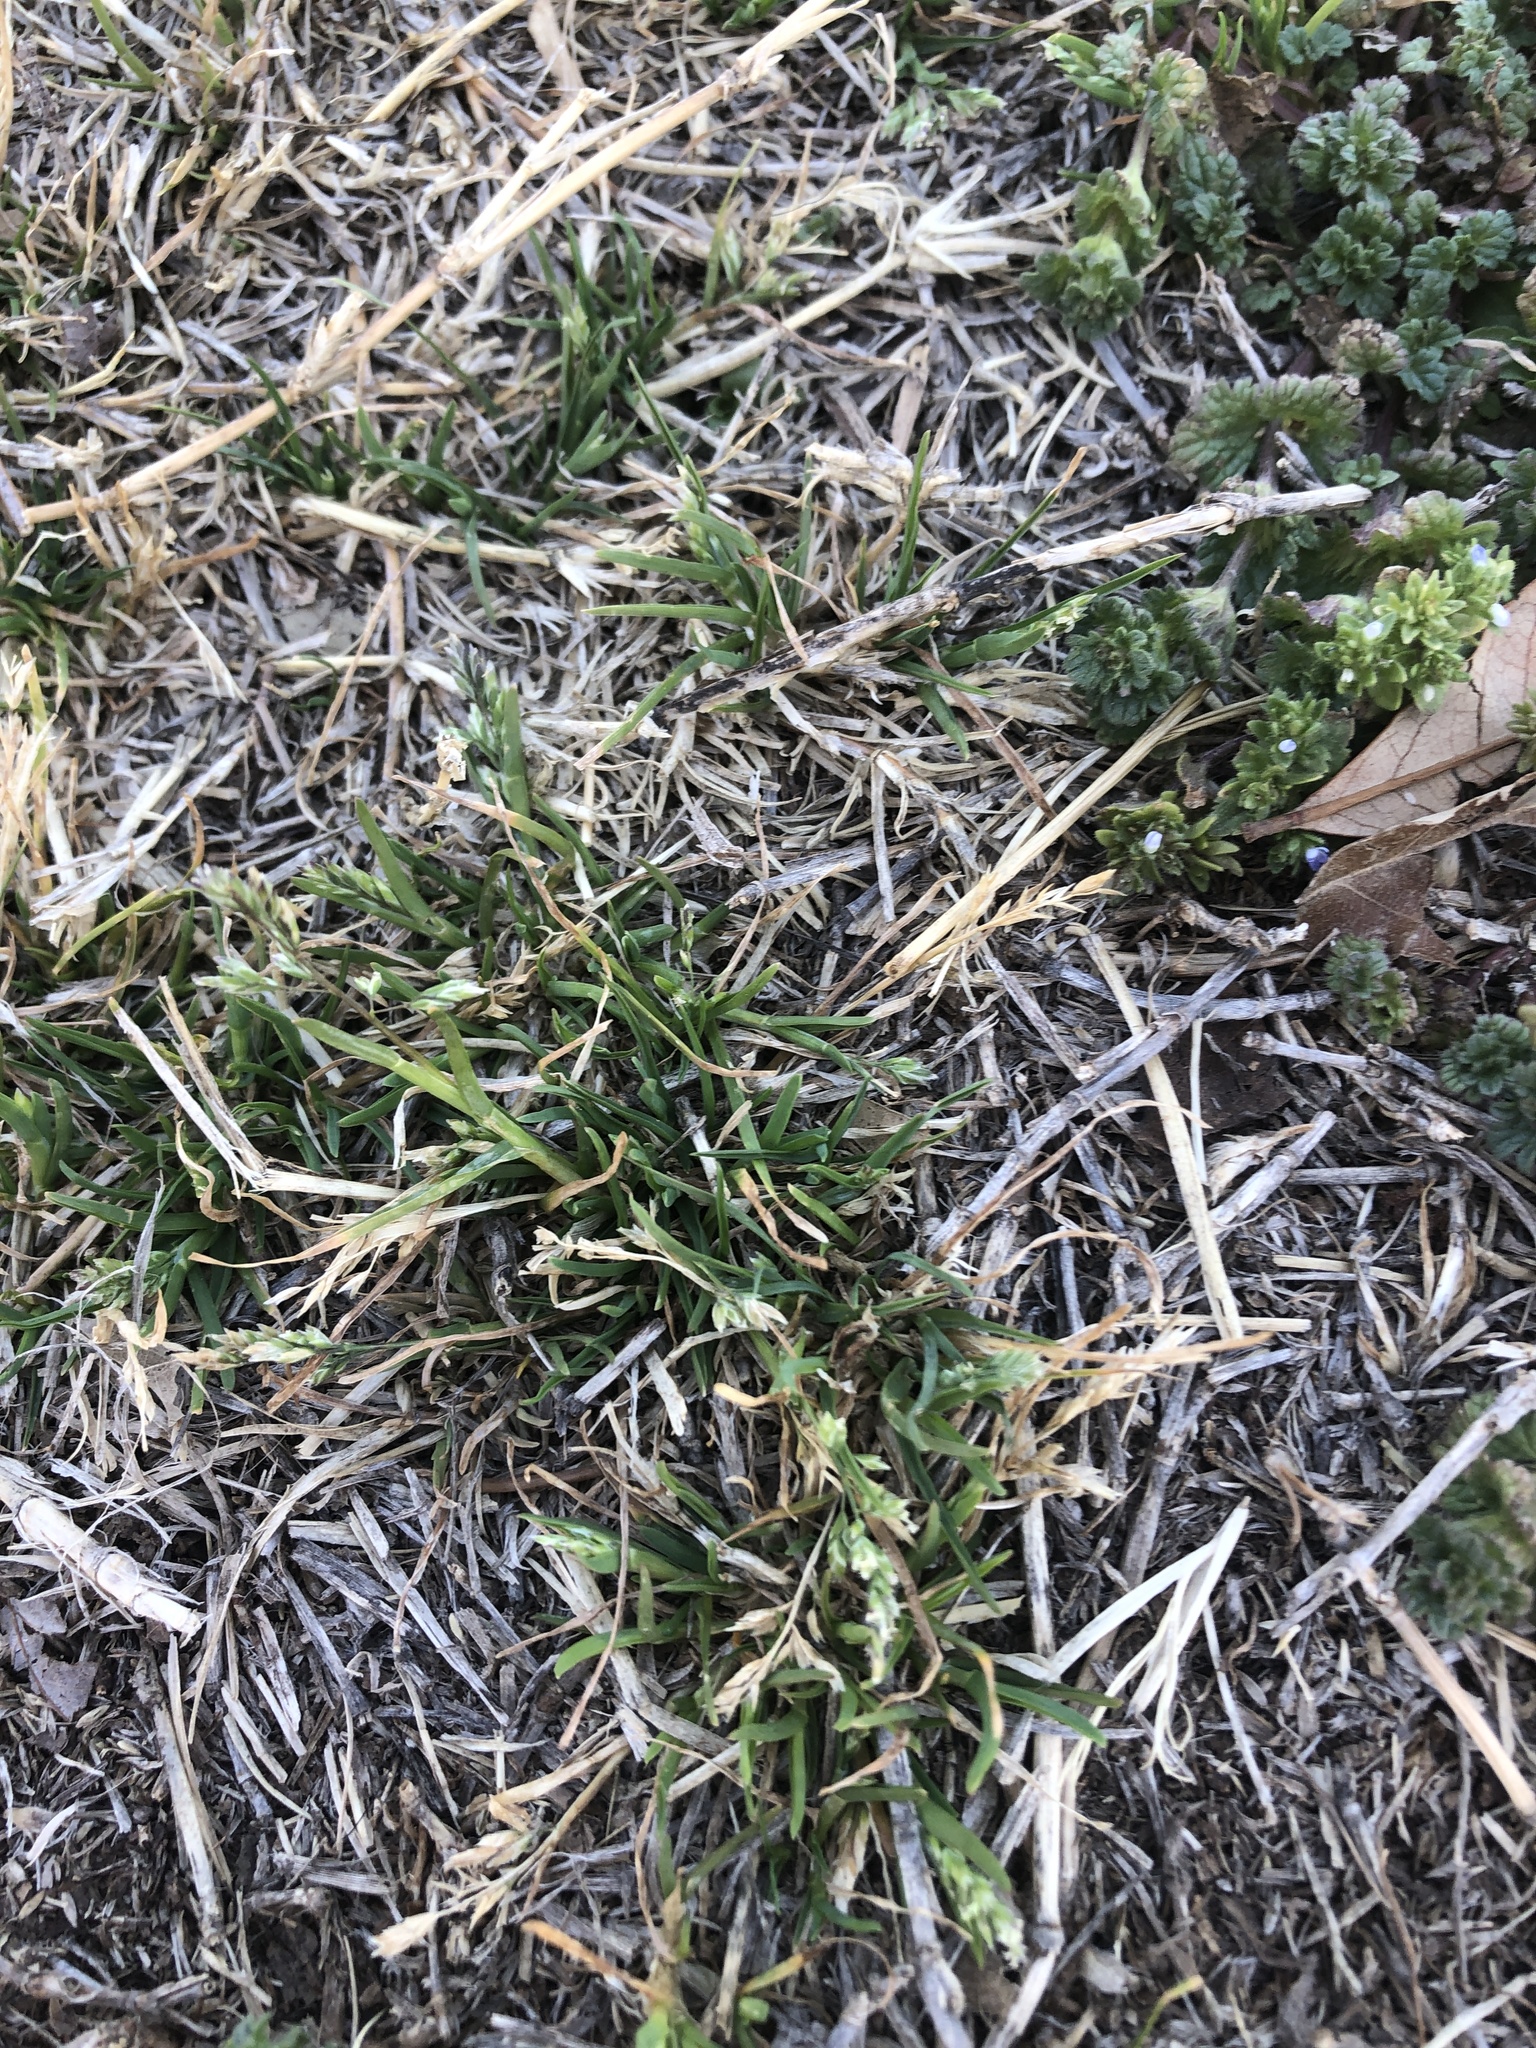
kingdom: Plantae
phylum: Tracheophyta
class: Liliopsida
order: Poales
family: Poaceae
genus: Poa
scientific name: Poa annua
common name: Annual bluegrass
